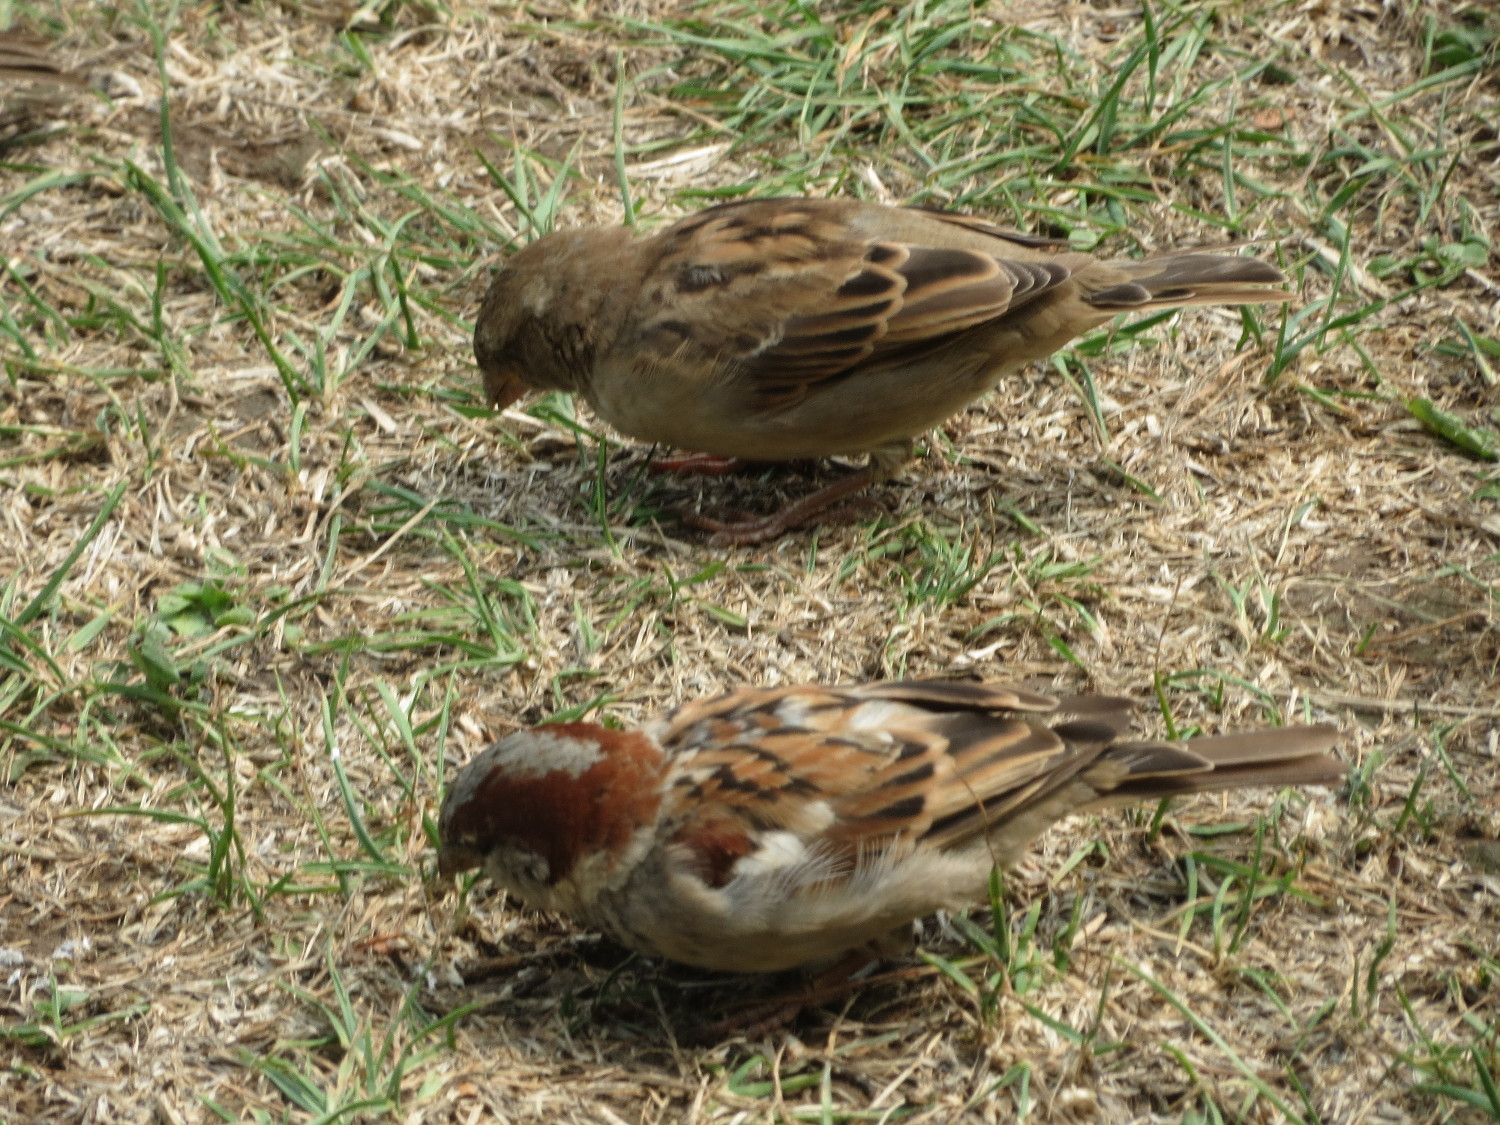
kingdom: Animalia
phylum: Chordata
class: Aves
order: Passeriformes
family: Passeridae
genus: Passer
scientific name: Passer domesticus
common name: House sparrow
